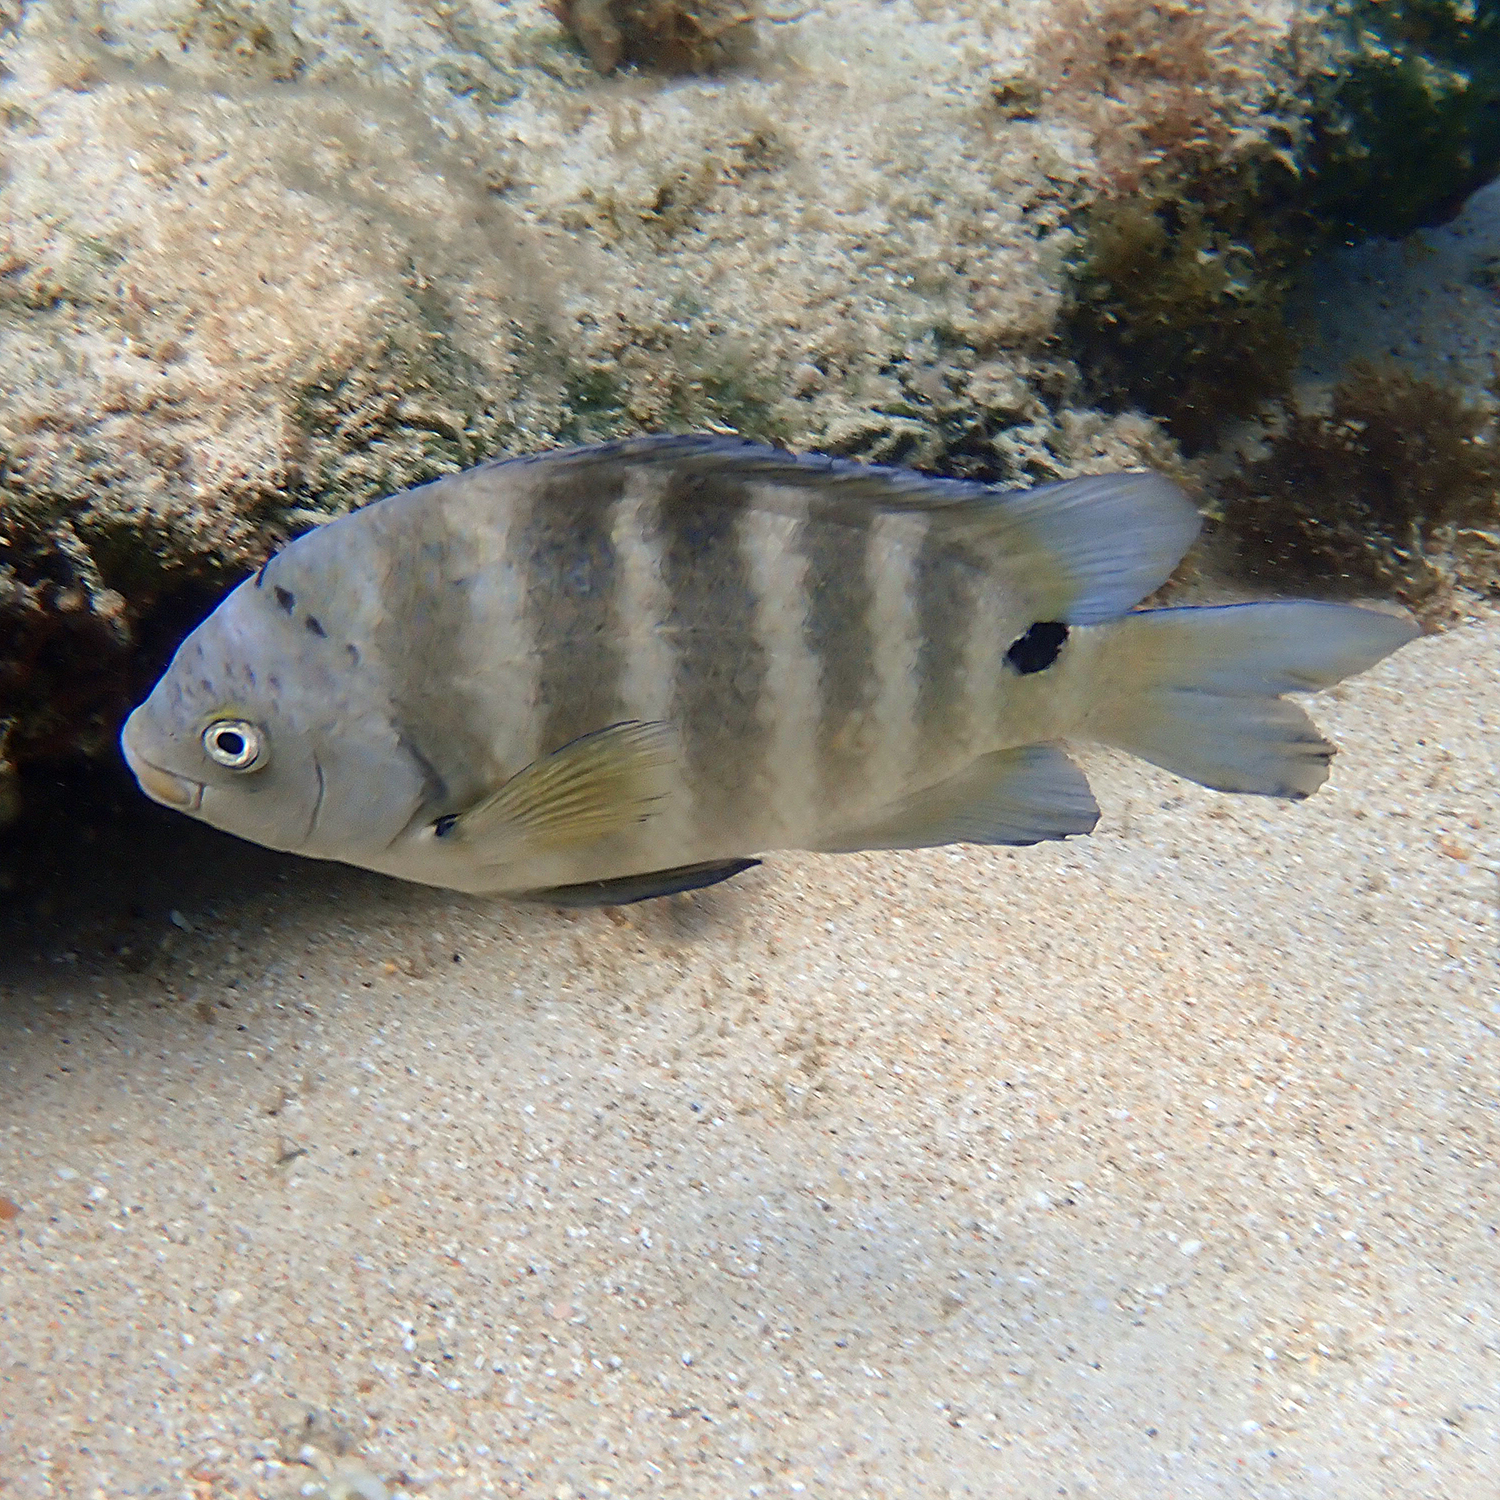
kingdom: Animalia
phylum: Chordata
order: Perciformes
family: Pomacentridae
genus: Abudefduf
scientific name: Abudefduf sordidus
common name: Blackspot sergeant
